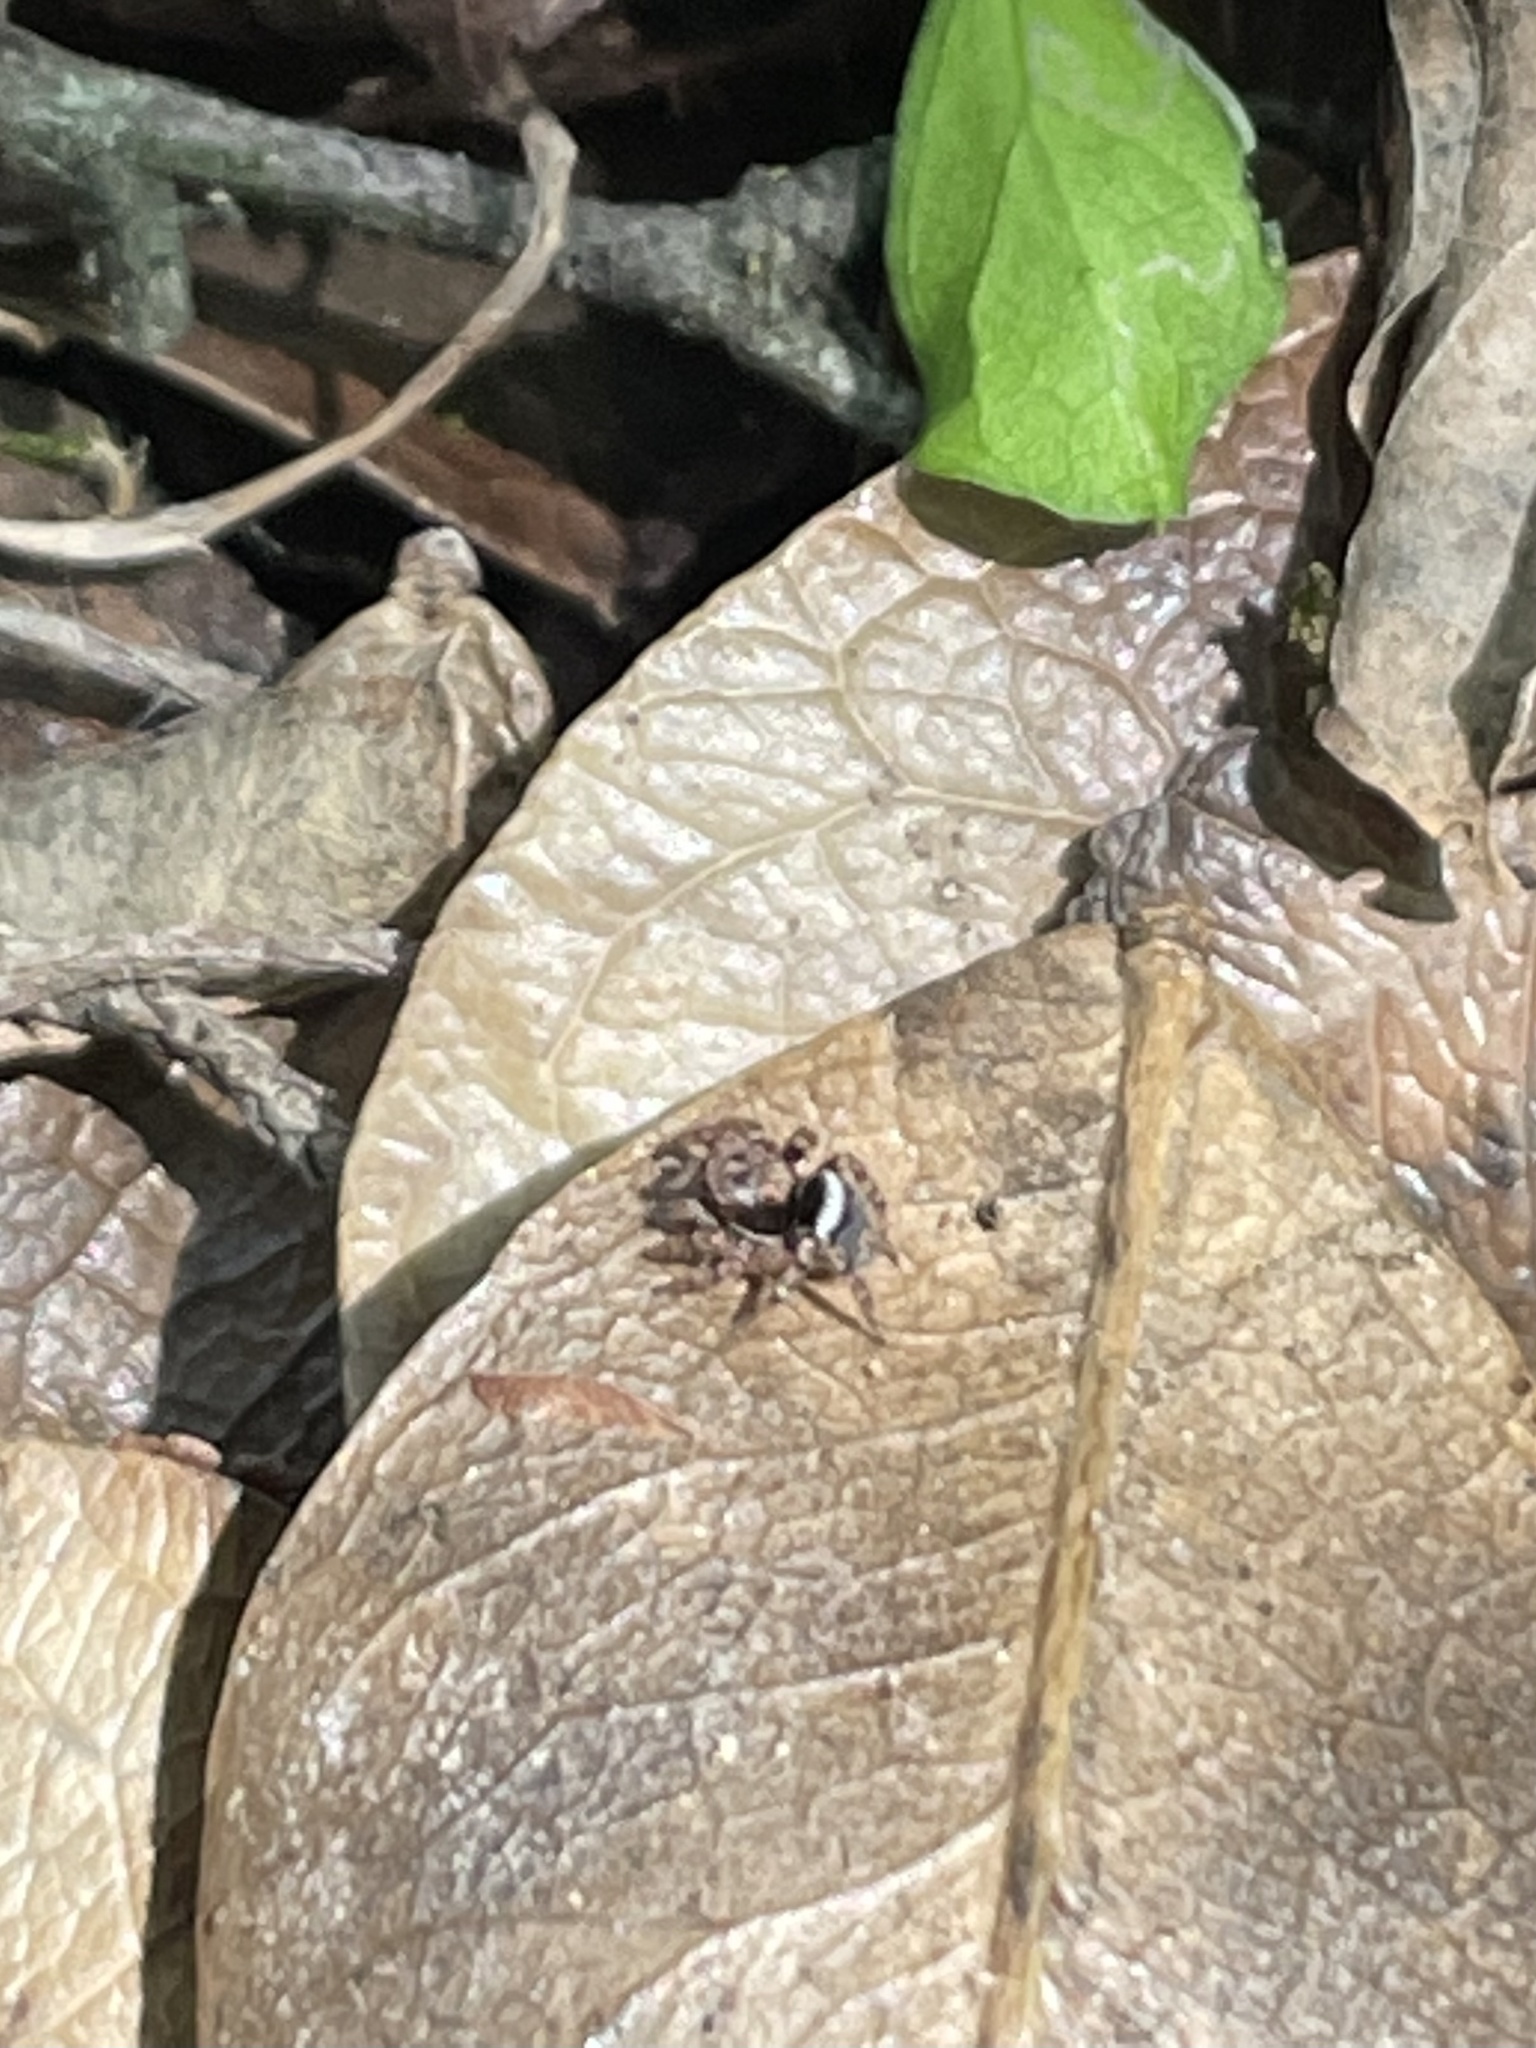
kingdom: Animalia
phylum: Arthropoda
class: Arachnida
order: Araneae
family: Salticidae
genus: Naphrys
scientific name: Naphrys acerba
